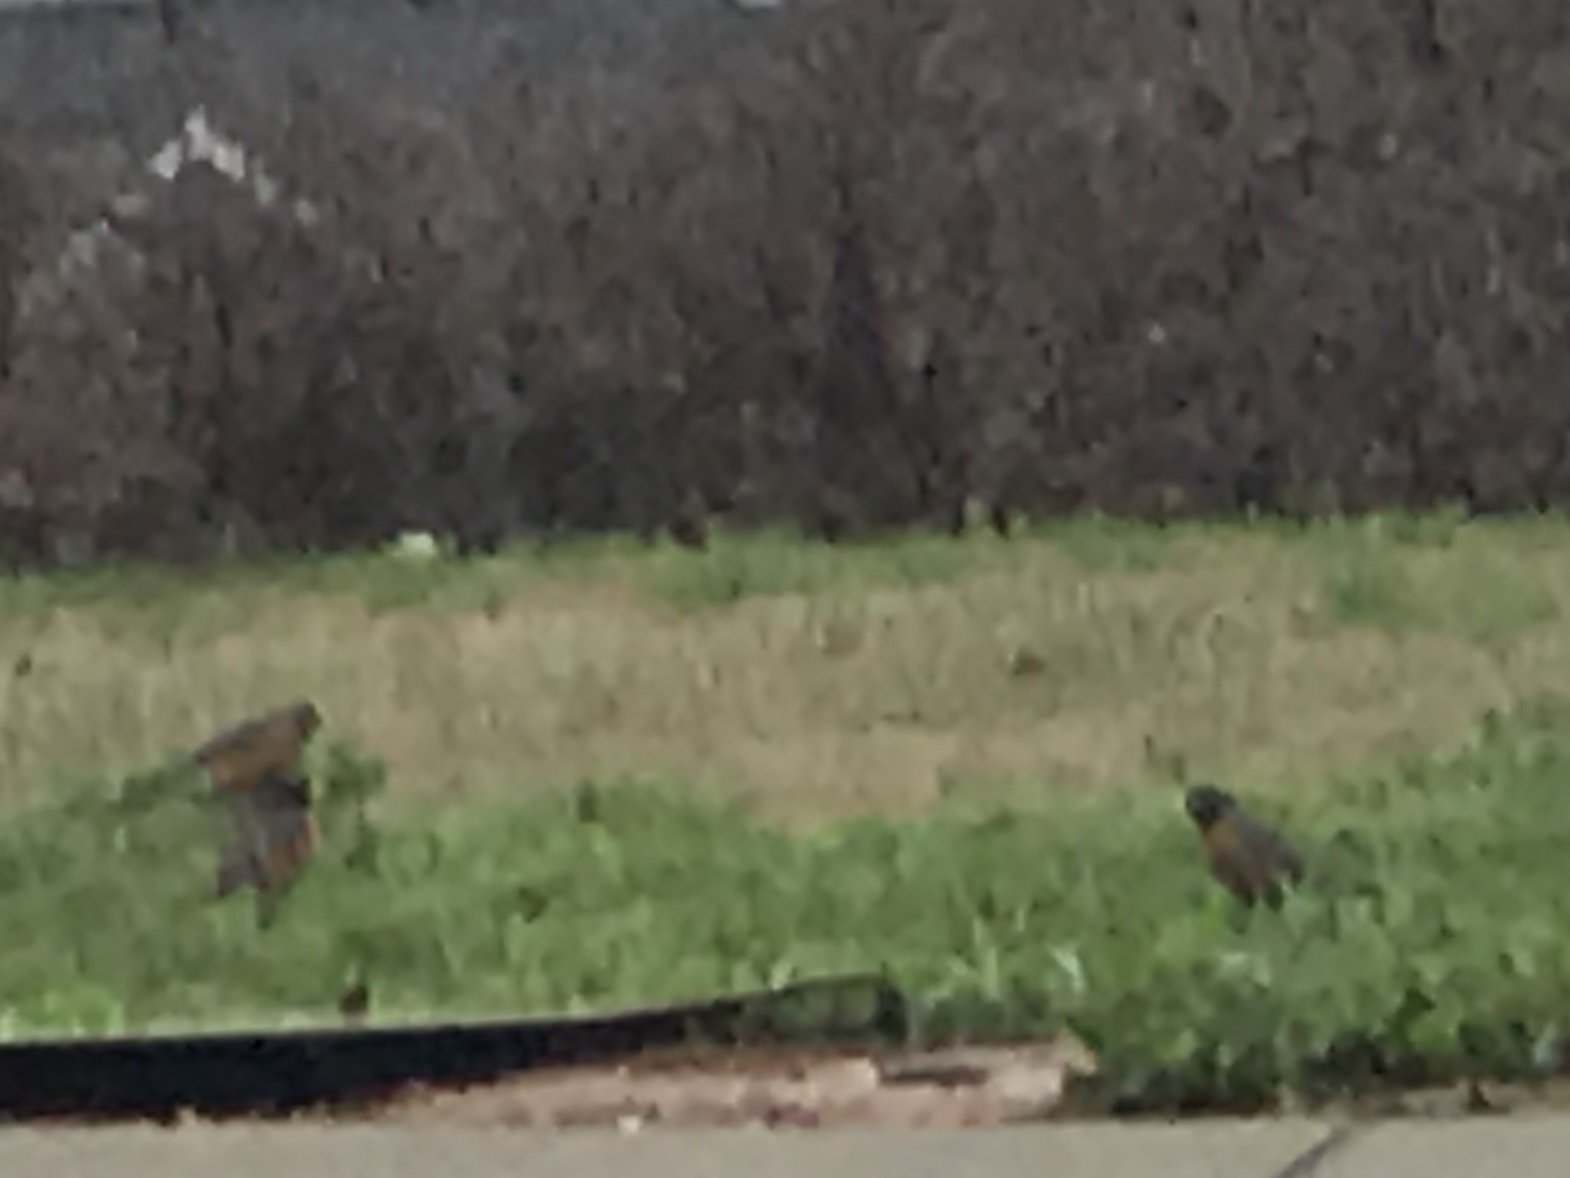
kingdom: Animalia
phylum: Chordata
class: Aves
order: Passeriformes
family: Turdidae
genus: Turdus
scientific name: Turdus migratorius
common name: American robin
